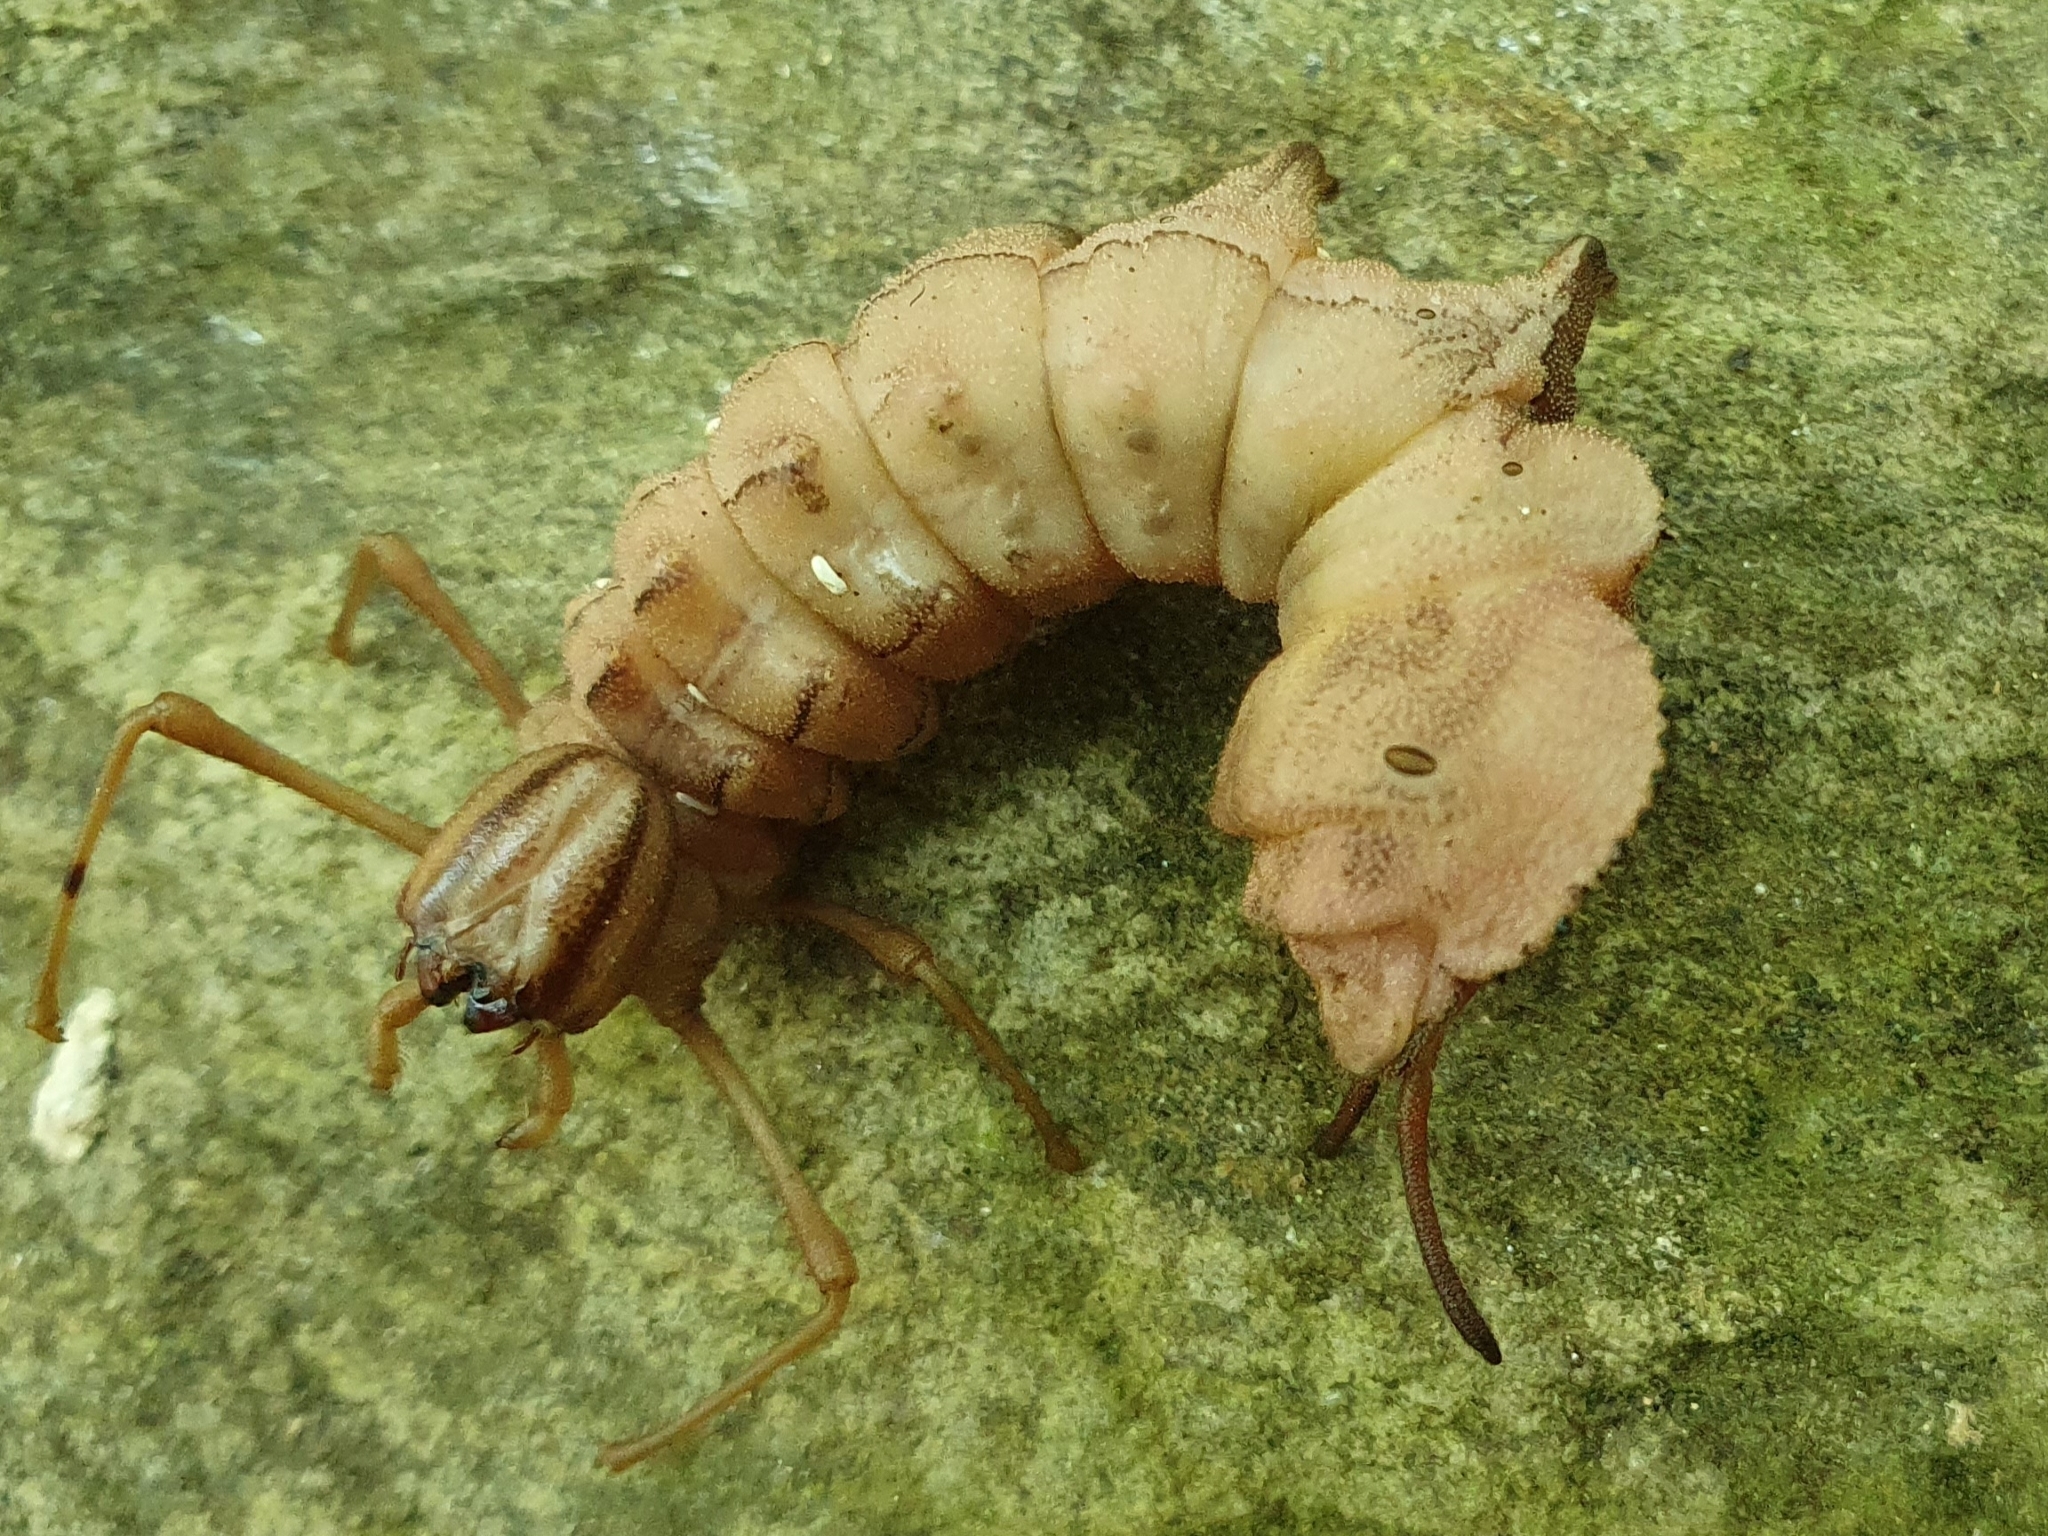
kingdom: Animalia
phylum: Arthropoda
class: Insecta
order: Lepidoptera
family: Notodontidae
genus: Stauropus
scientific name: Stauropus fagi
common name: Lobster moth
